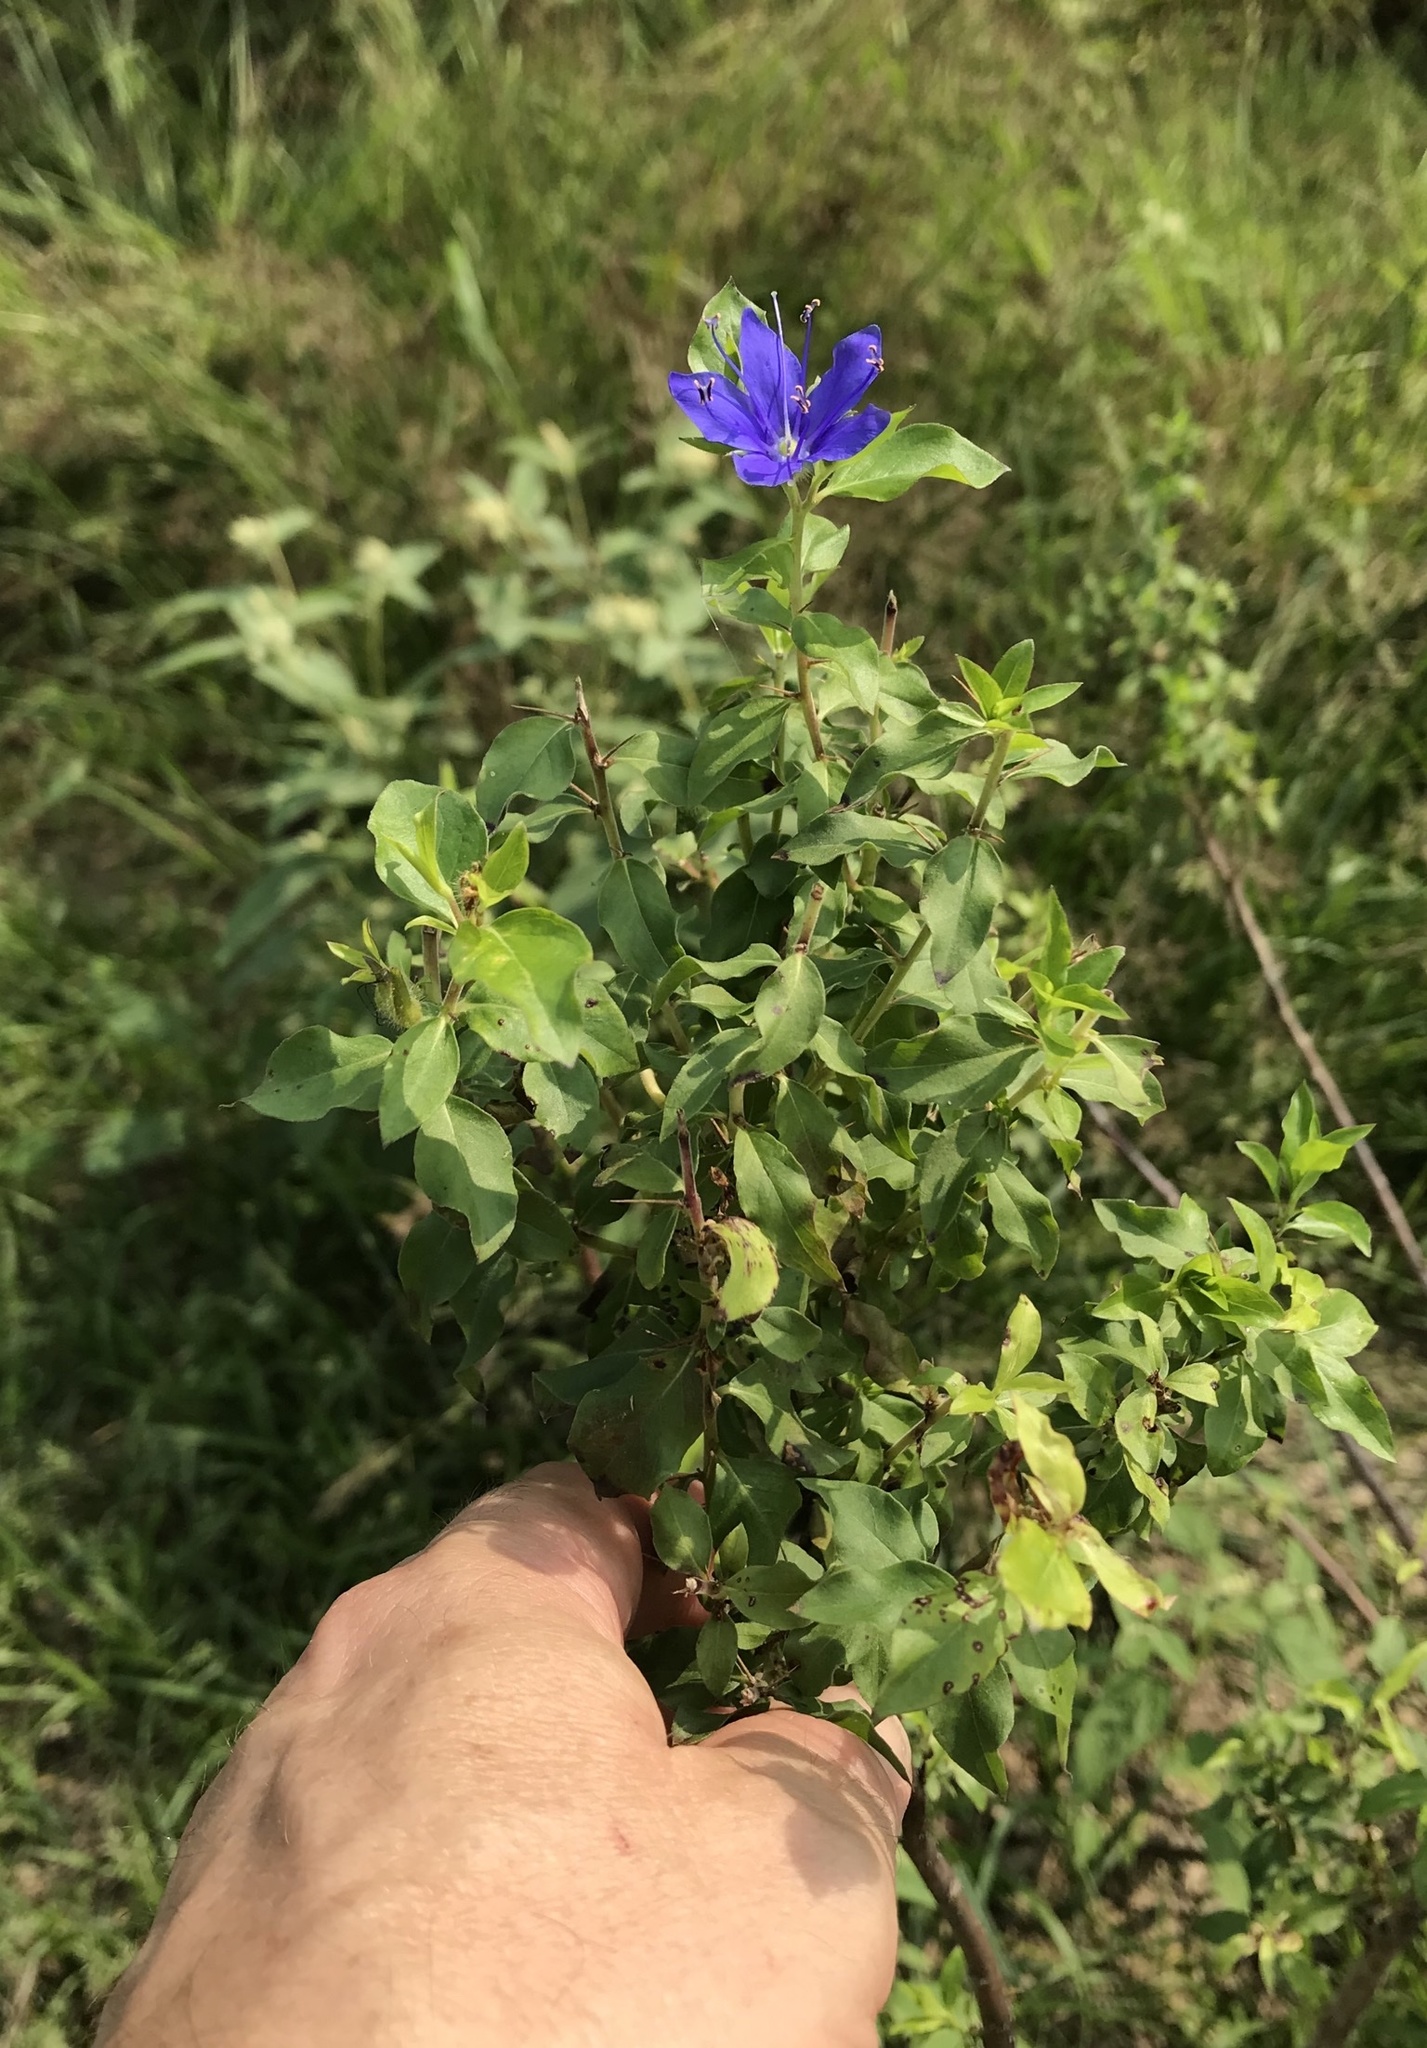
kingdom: Plantae
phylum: Tracheophyta
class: Magnoliopsida
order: Solanales
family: Hydroleaceae
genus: Hydrolea
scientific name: Hydrolea ovata
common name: Ovate false fiddleleaf
